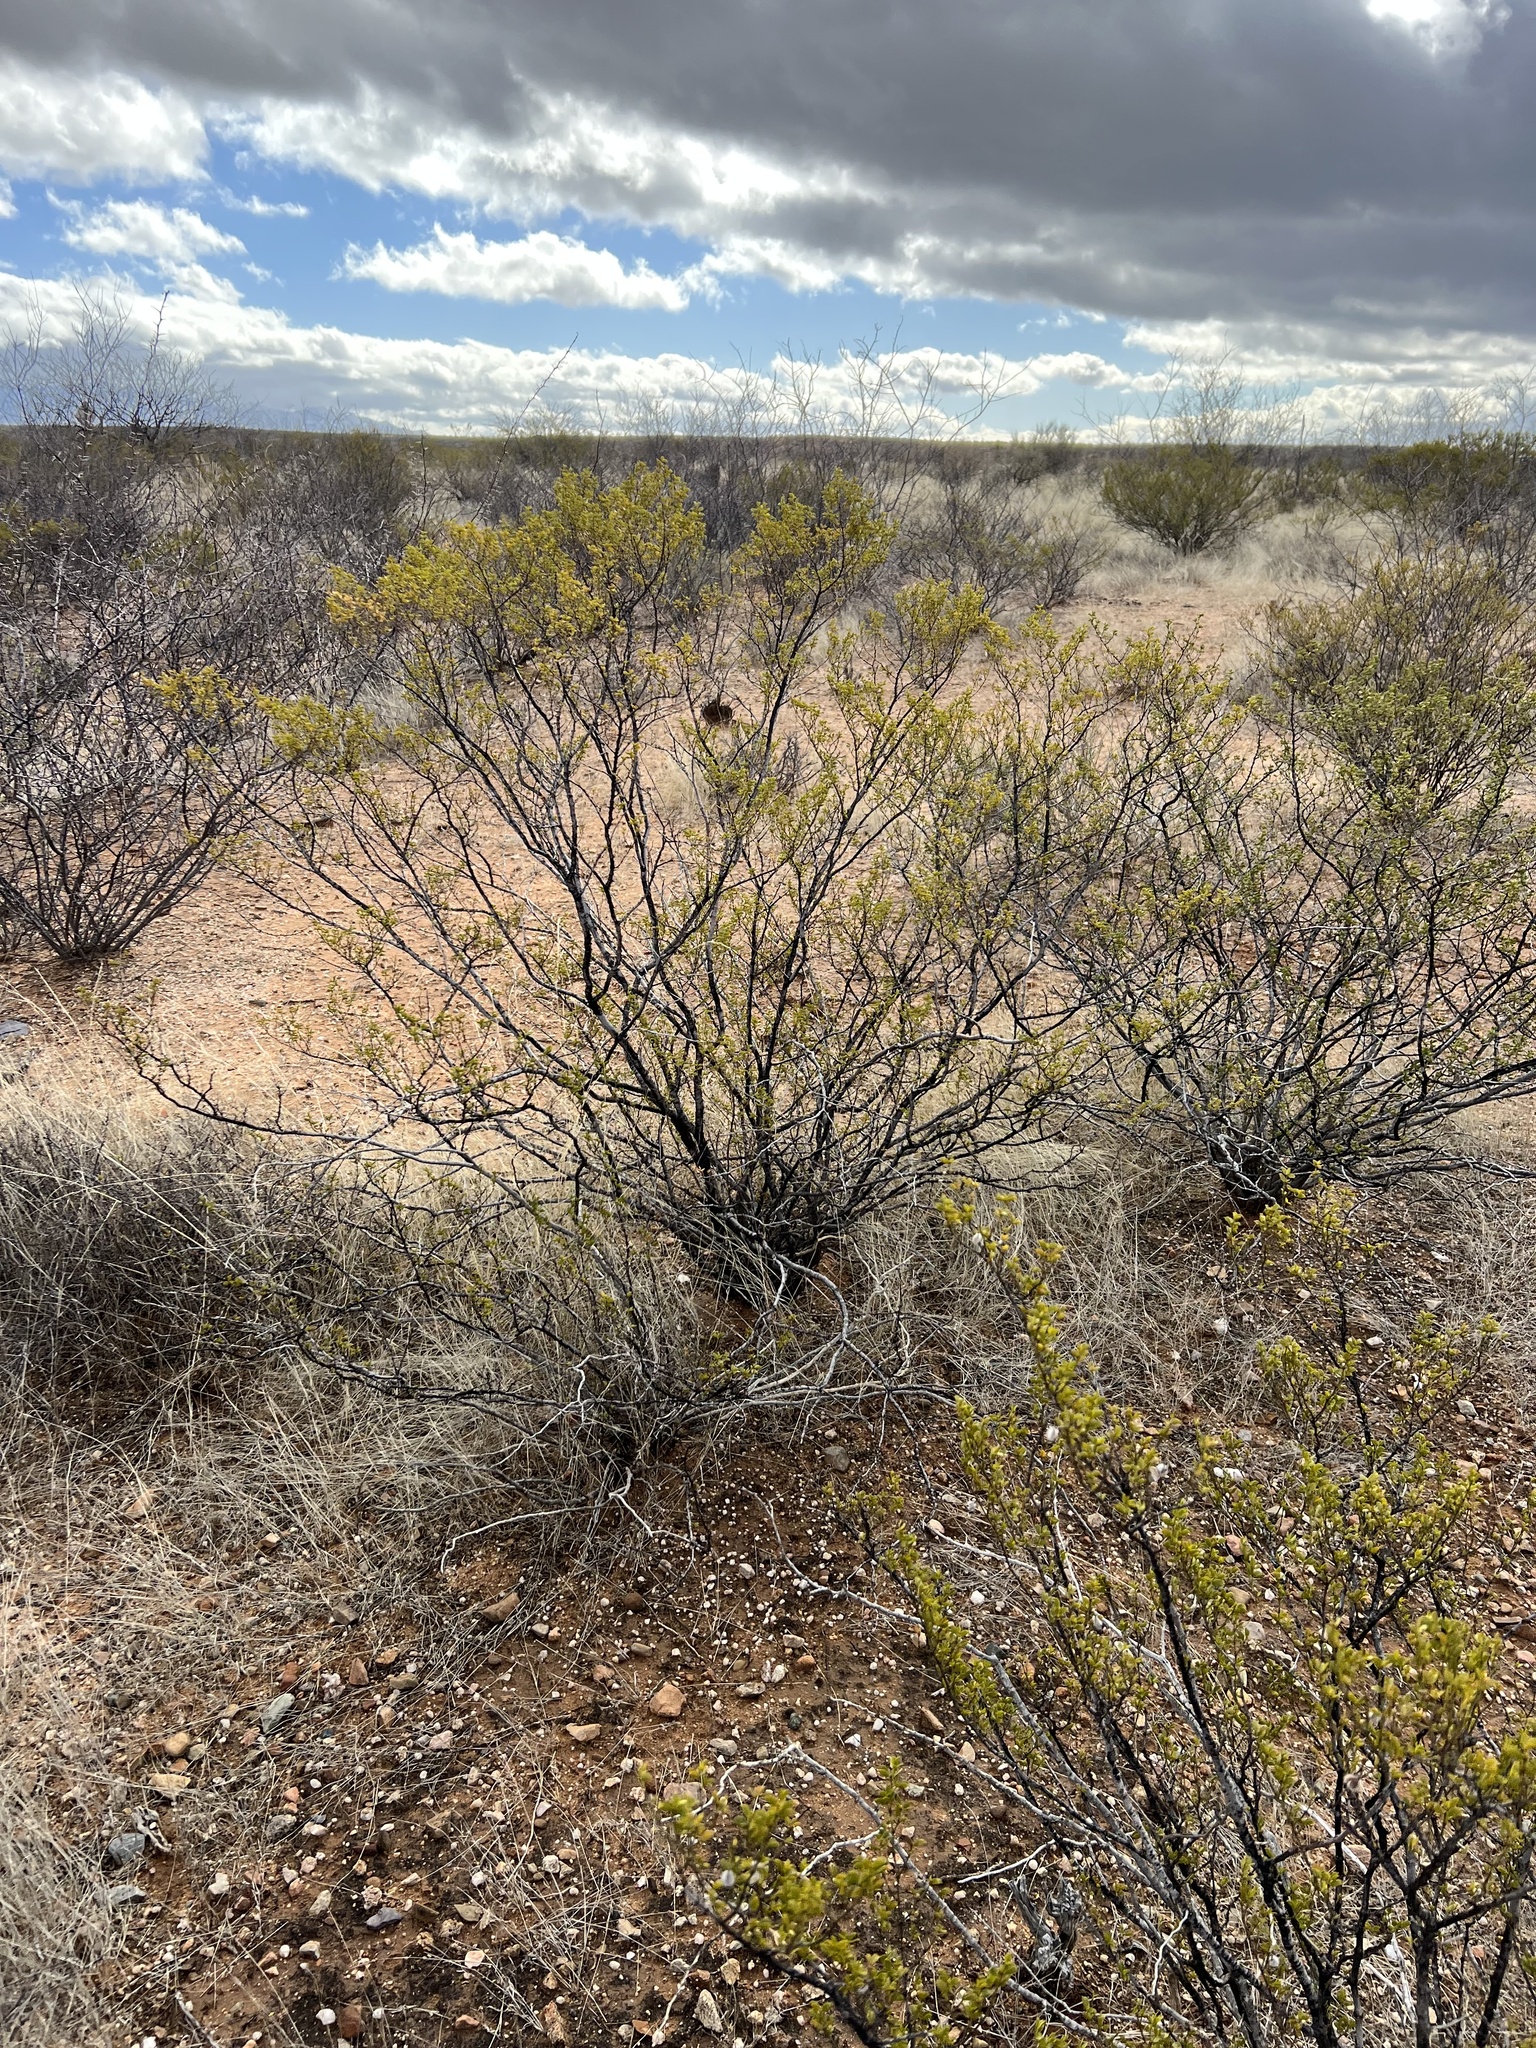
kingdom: Plantae
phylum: Tracheophyta
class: Magnoliopsida
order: Zygophyllales
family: Zygophyllaceae
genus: Larrea
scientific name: Larrea tridentata
